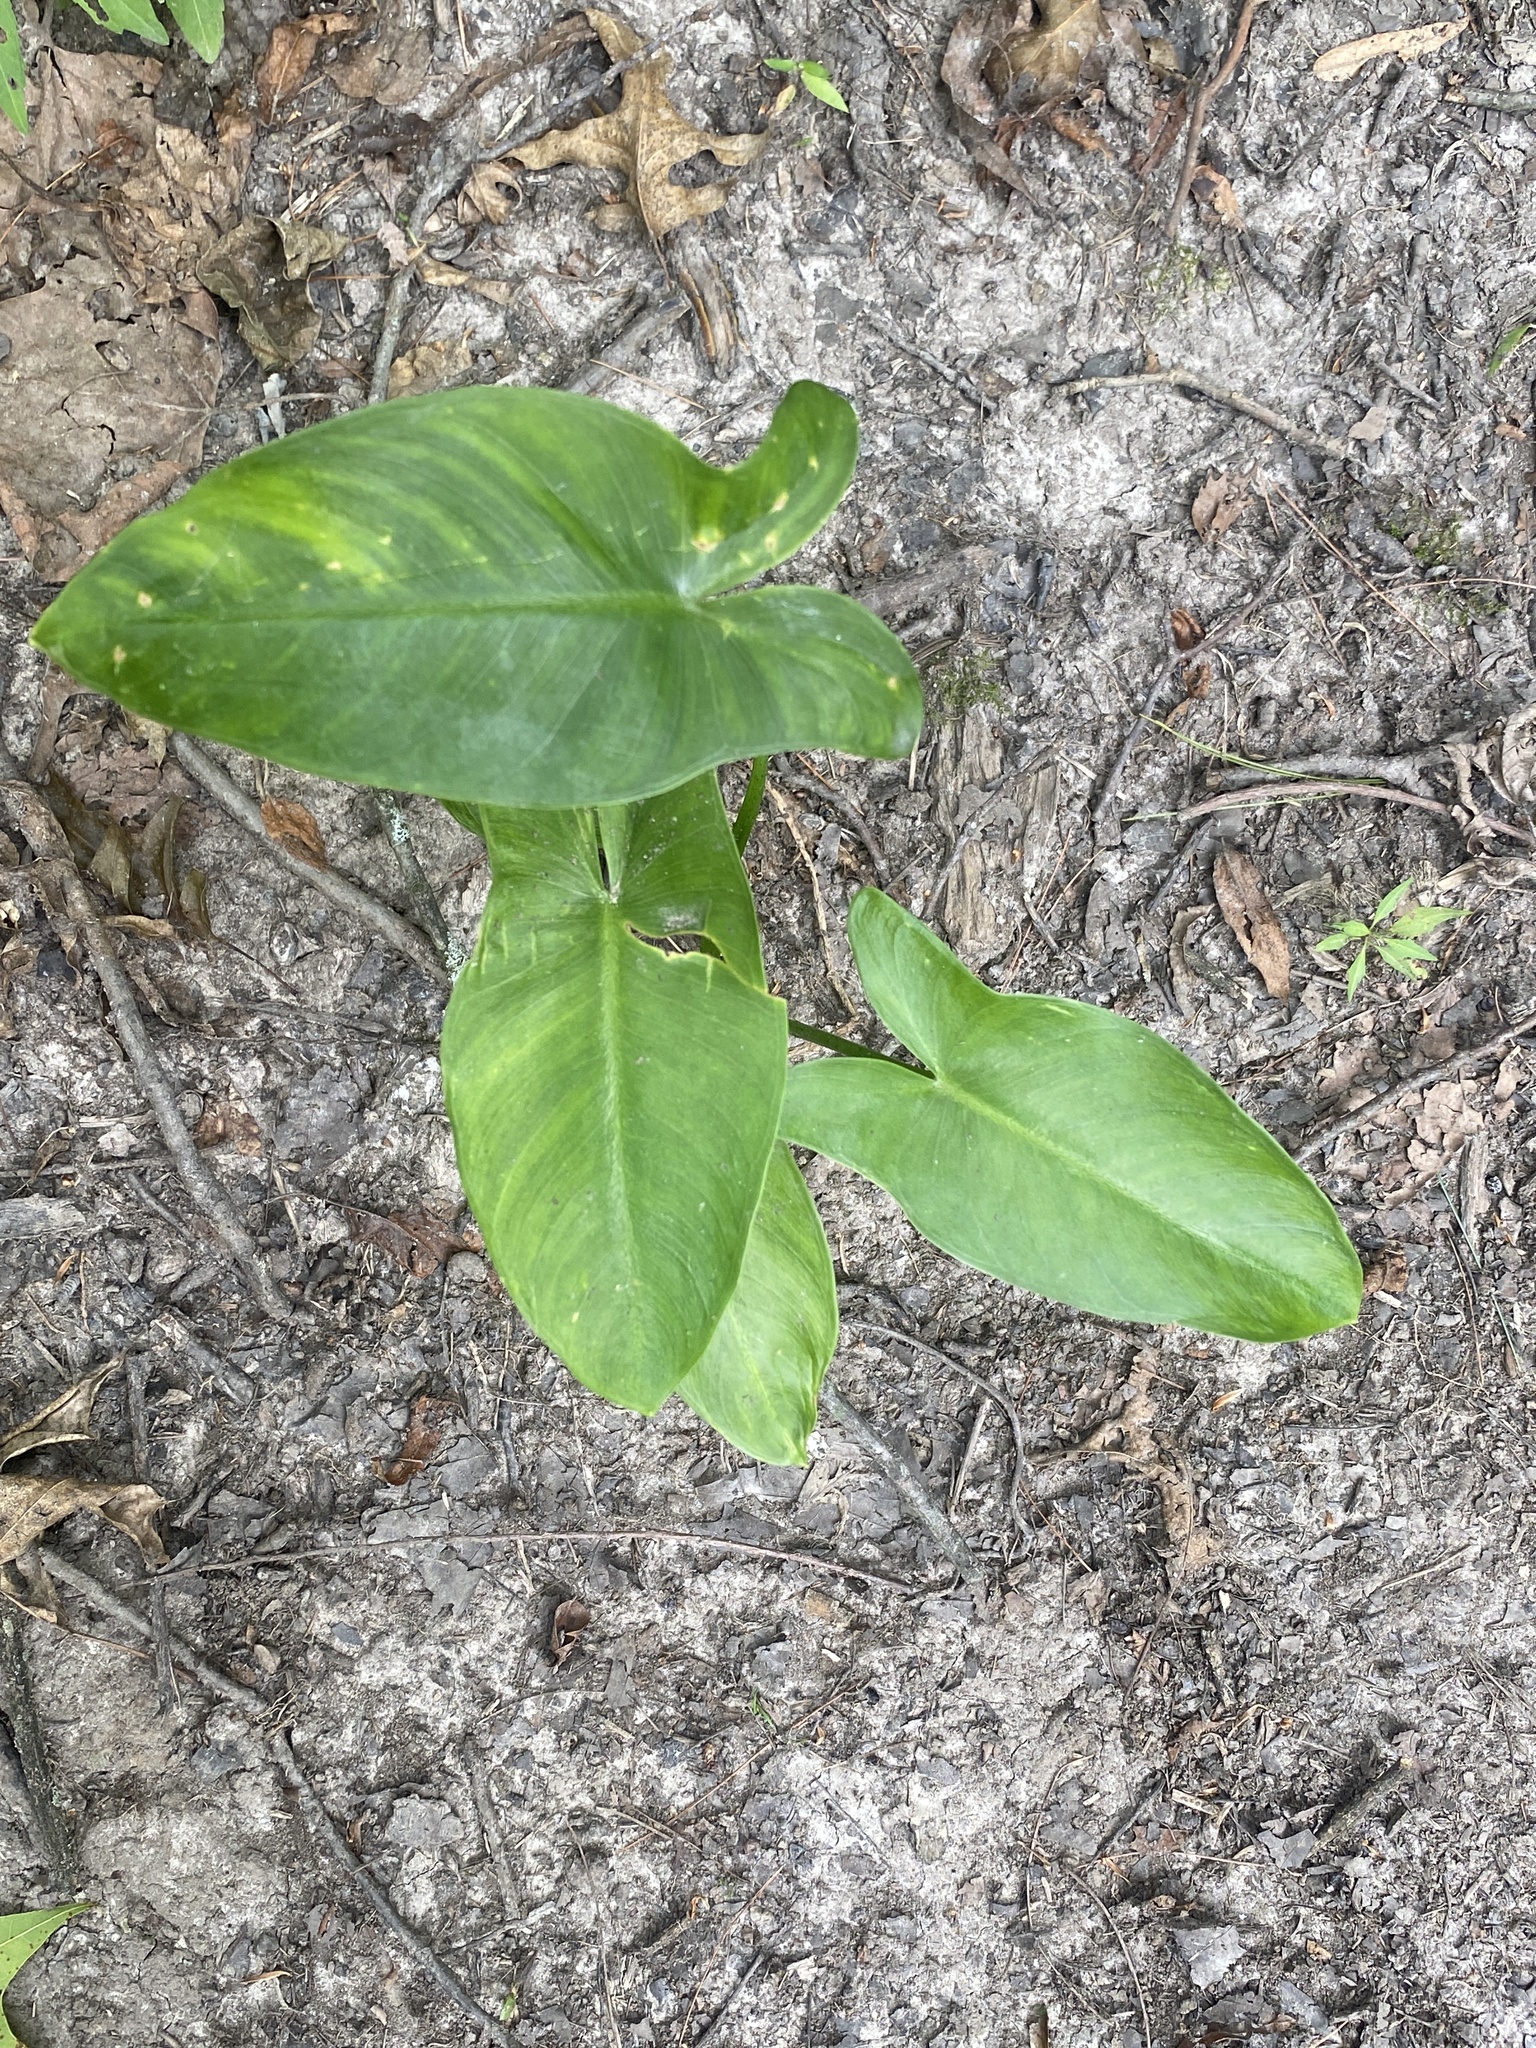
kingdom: Plantae
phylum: Tracheophyta
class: Liliopsida
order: Alismatales
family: Araceae
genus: Peltandra
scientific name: Peltandra virginica
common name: Arrow arum
